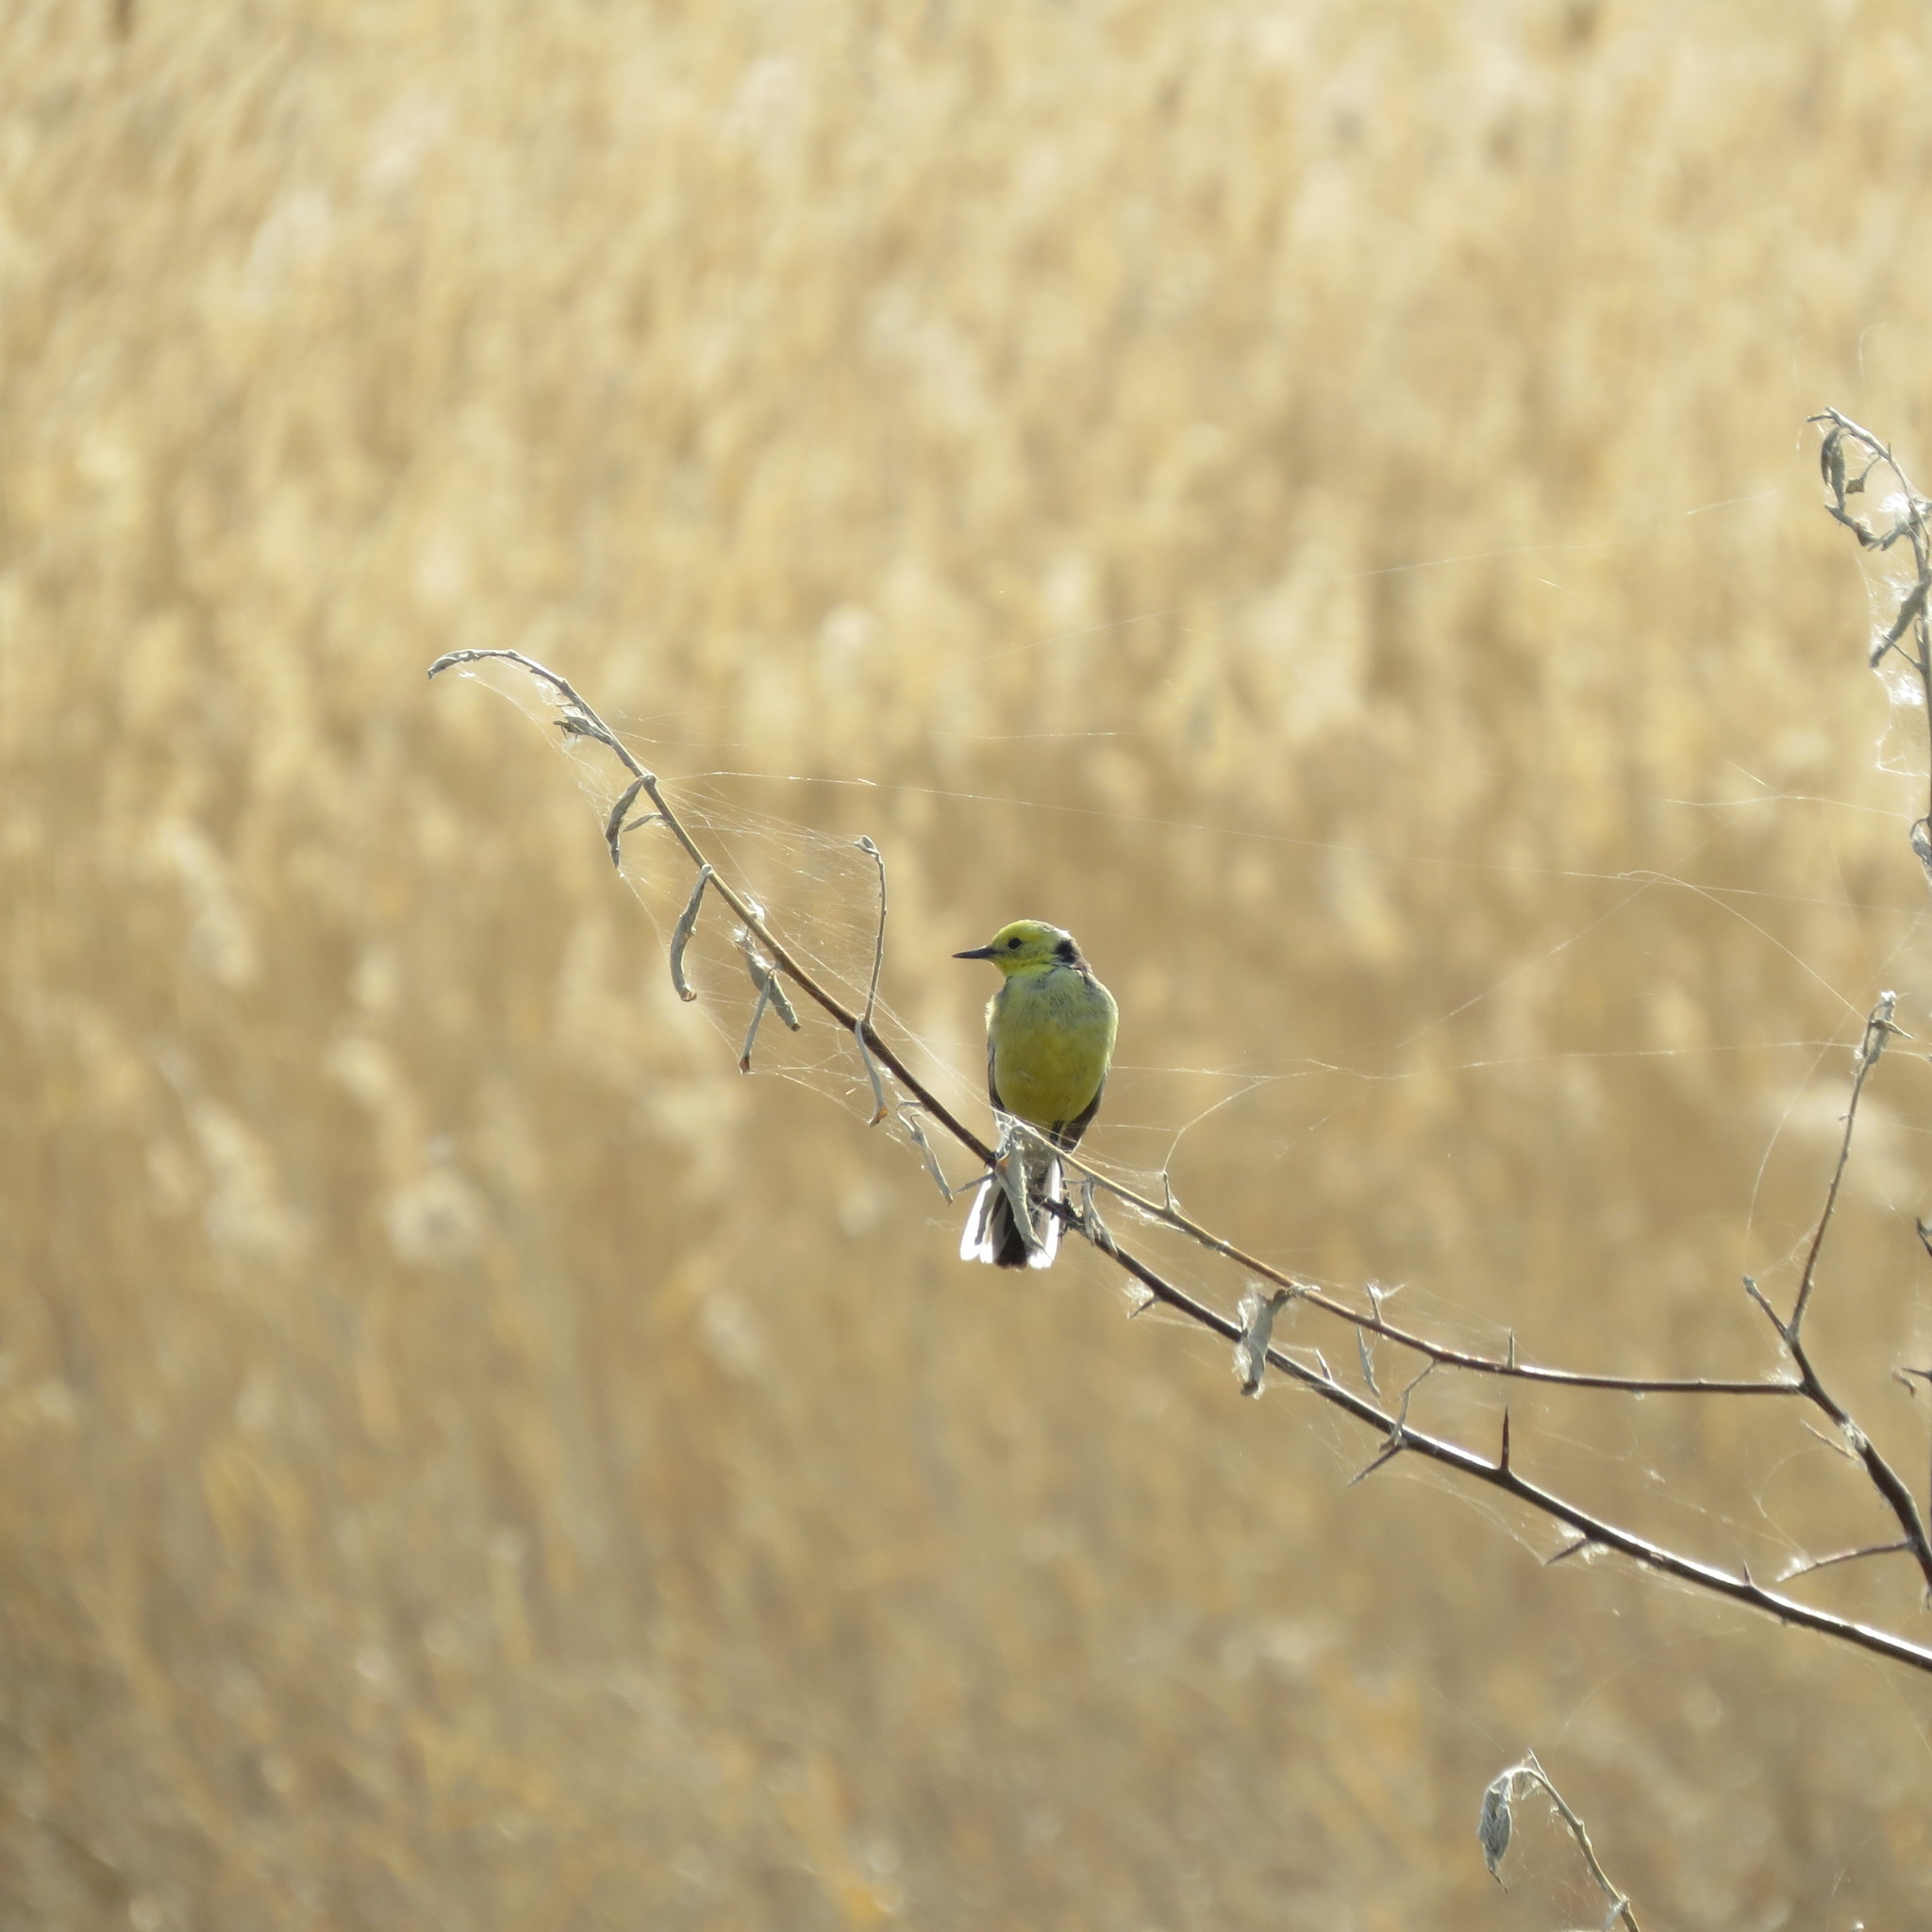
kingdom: Animalia
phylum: Chordata
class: Aves
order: Passeriformes
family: Motacillidae
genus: Motacilla
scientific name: Motacilla citreola
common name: Citrine wagtail
